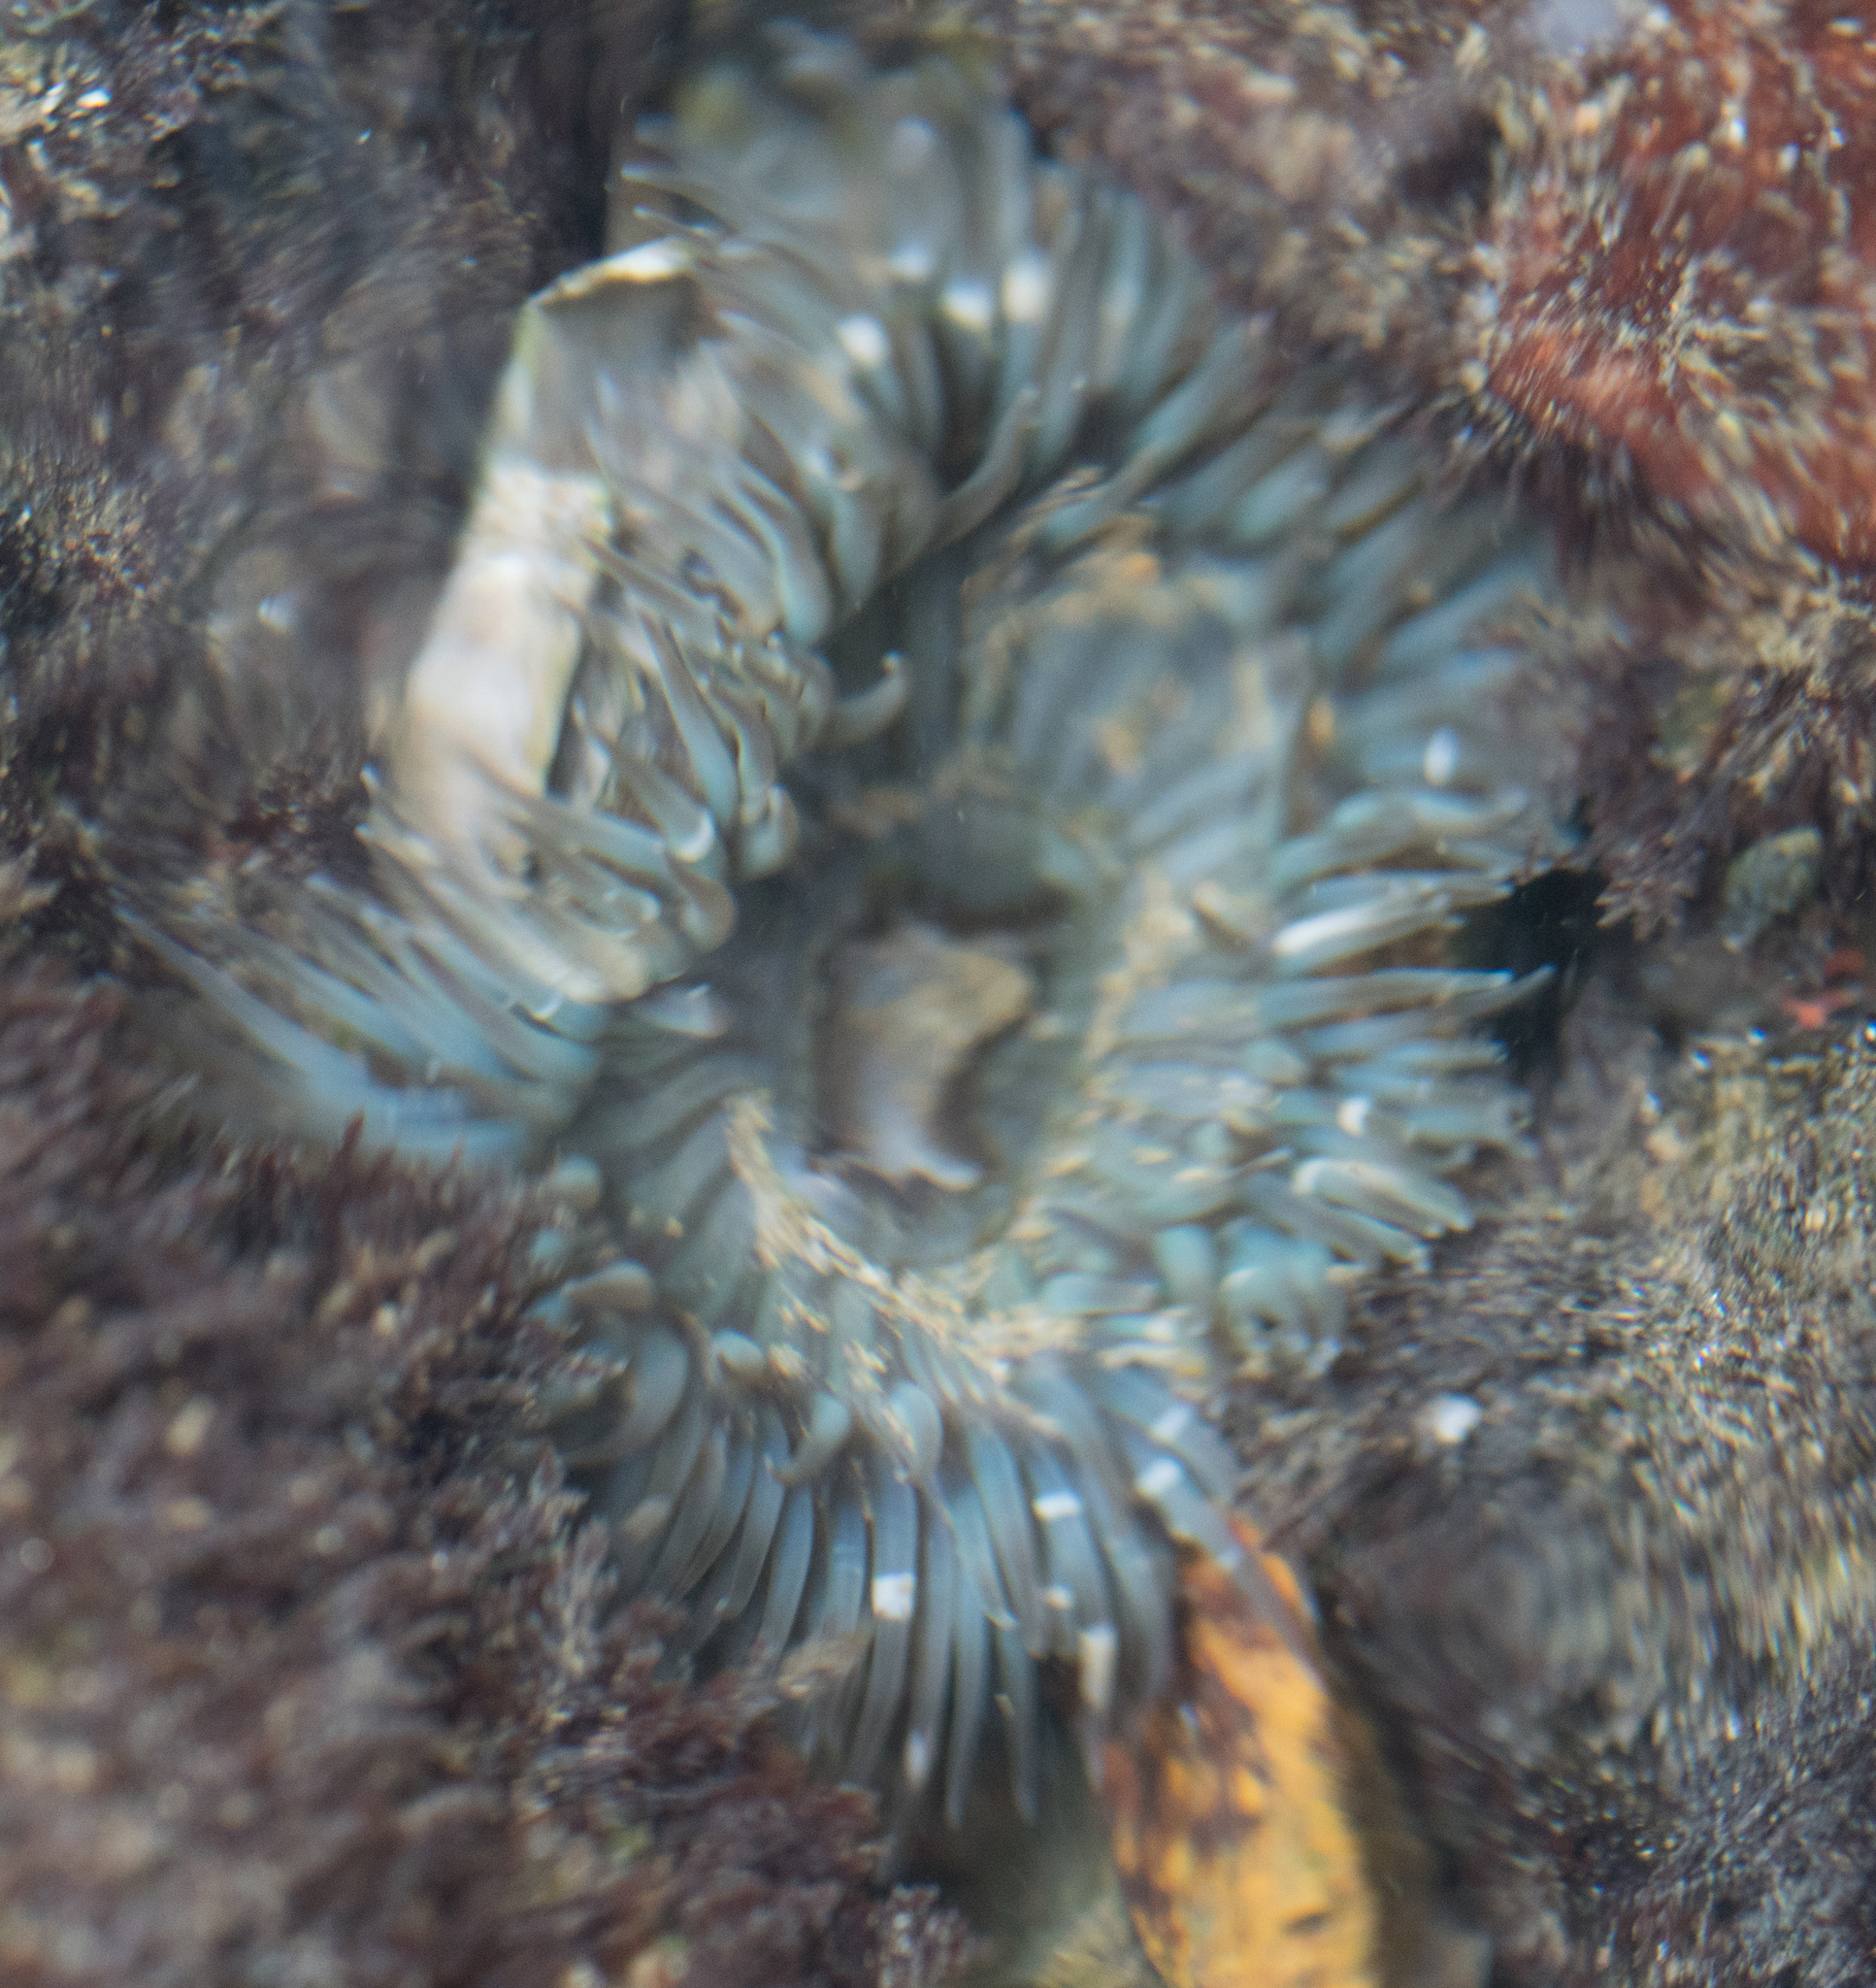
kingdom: Animalia
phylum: Cnidaria
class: Anthozoa
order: Actiniaria
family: Actiniidae
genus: Anthopleura
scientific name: Anthopleura sola
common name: Sun anemone
